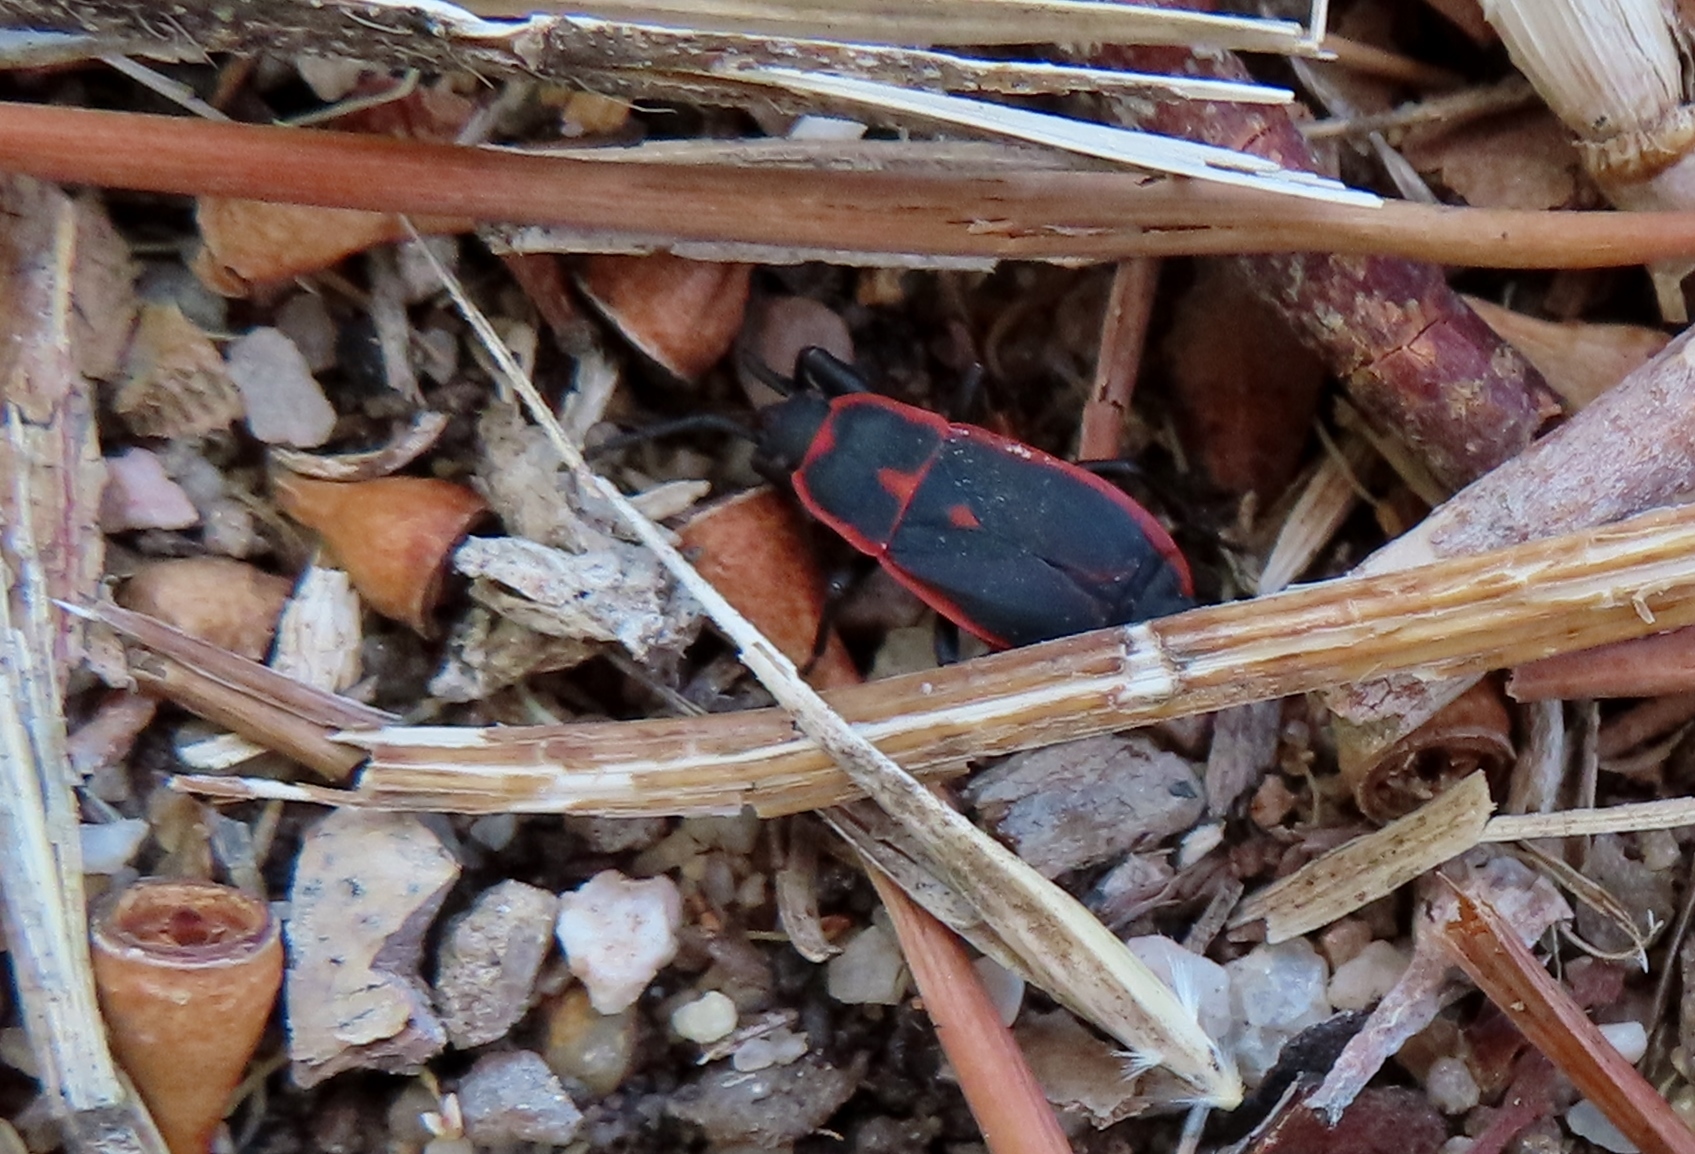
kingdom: Animalia
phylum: Arthropoda
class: Insecta
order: Hemiptera
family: Pyrrhocoridae
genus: Scantius
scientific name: Scantius forsteri
